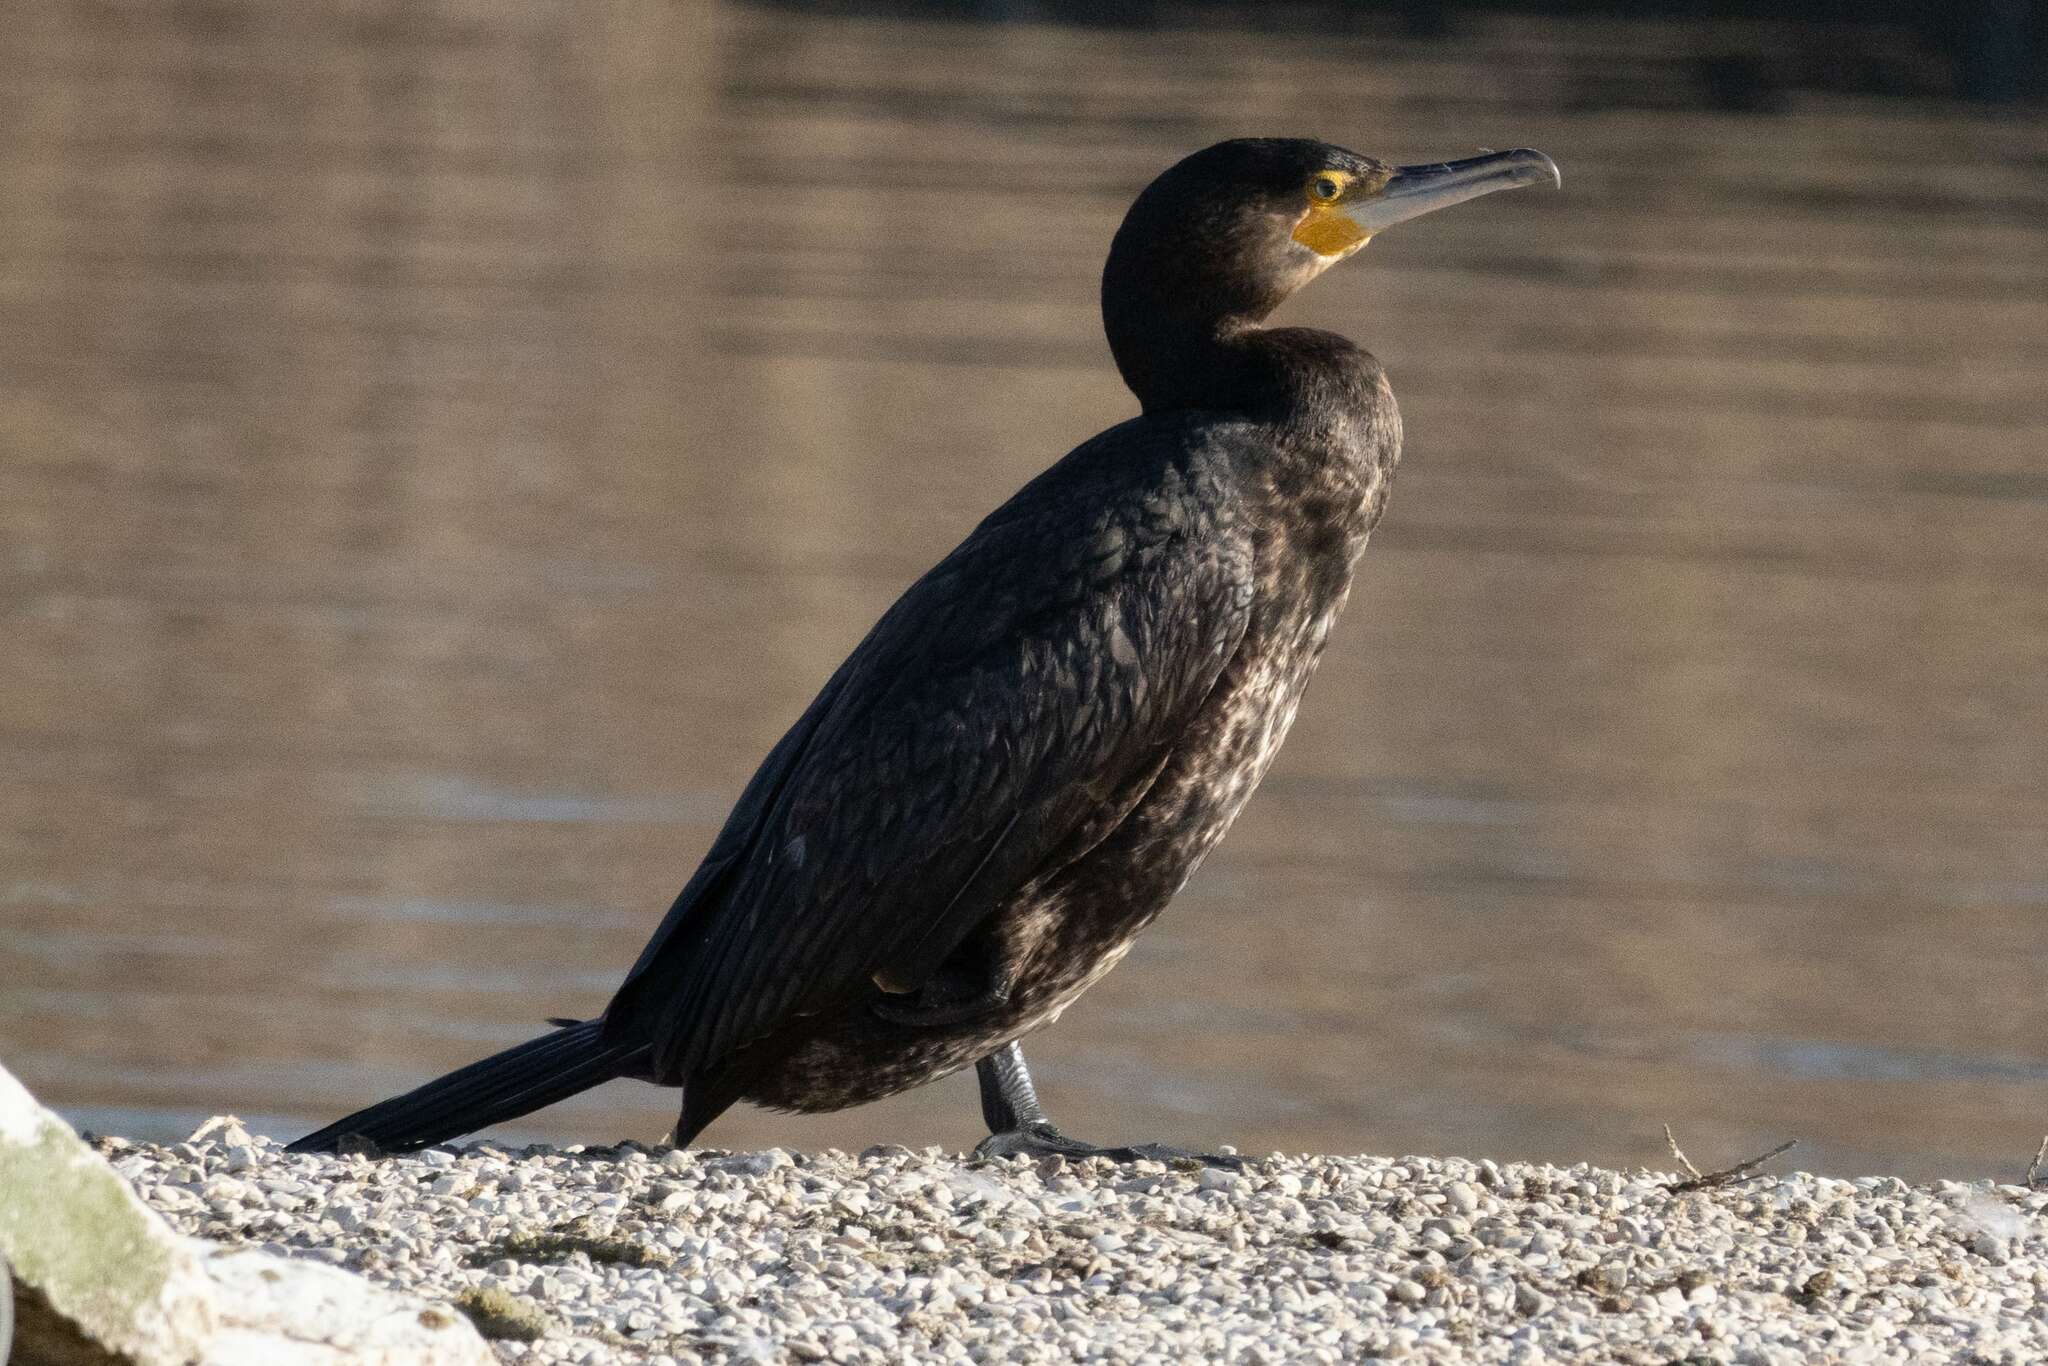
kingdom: Animalia
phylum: Chordata
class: Aves
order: Suliformes
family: Phalacrocoracidae
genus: Phalacrocorax
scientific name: Phalacrocorax carbo
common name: Great cormorant
